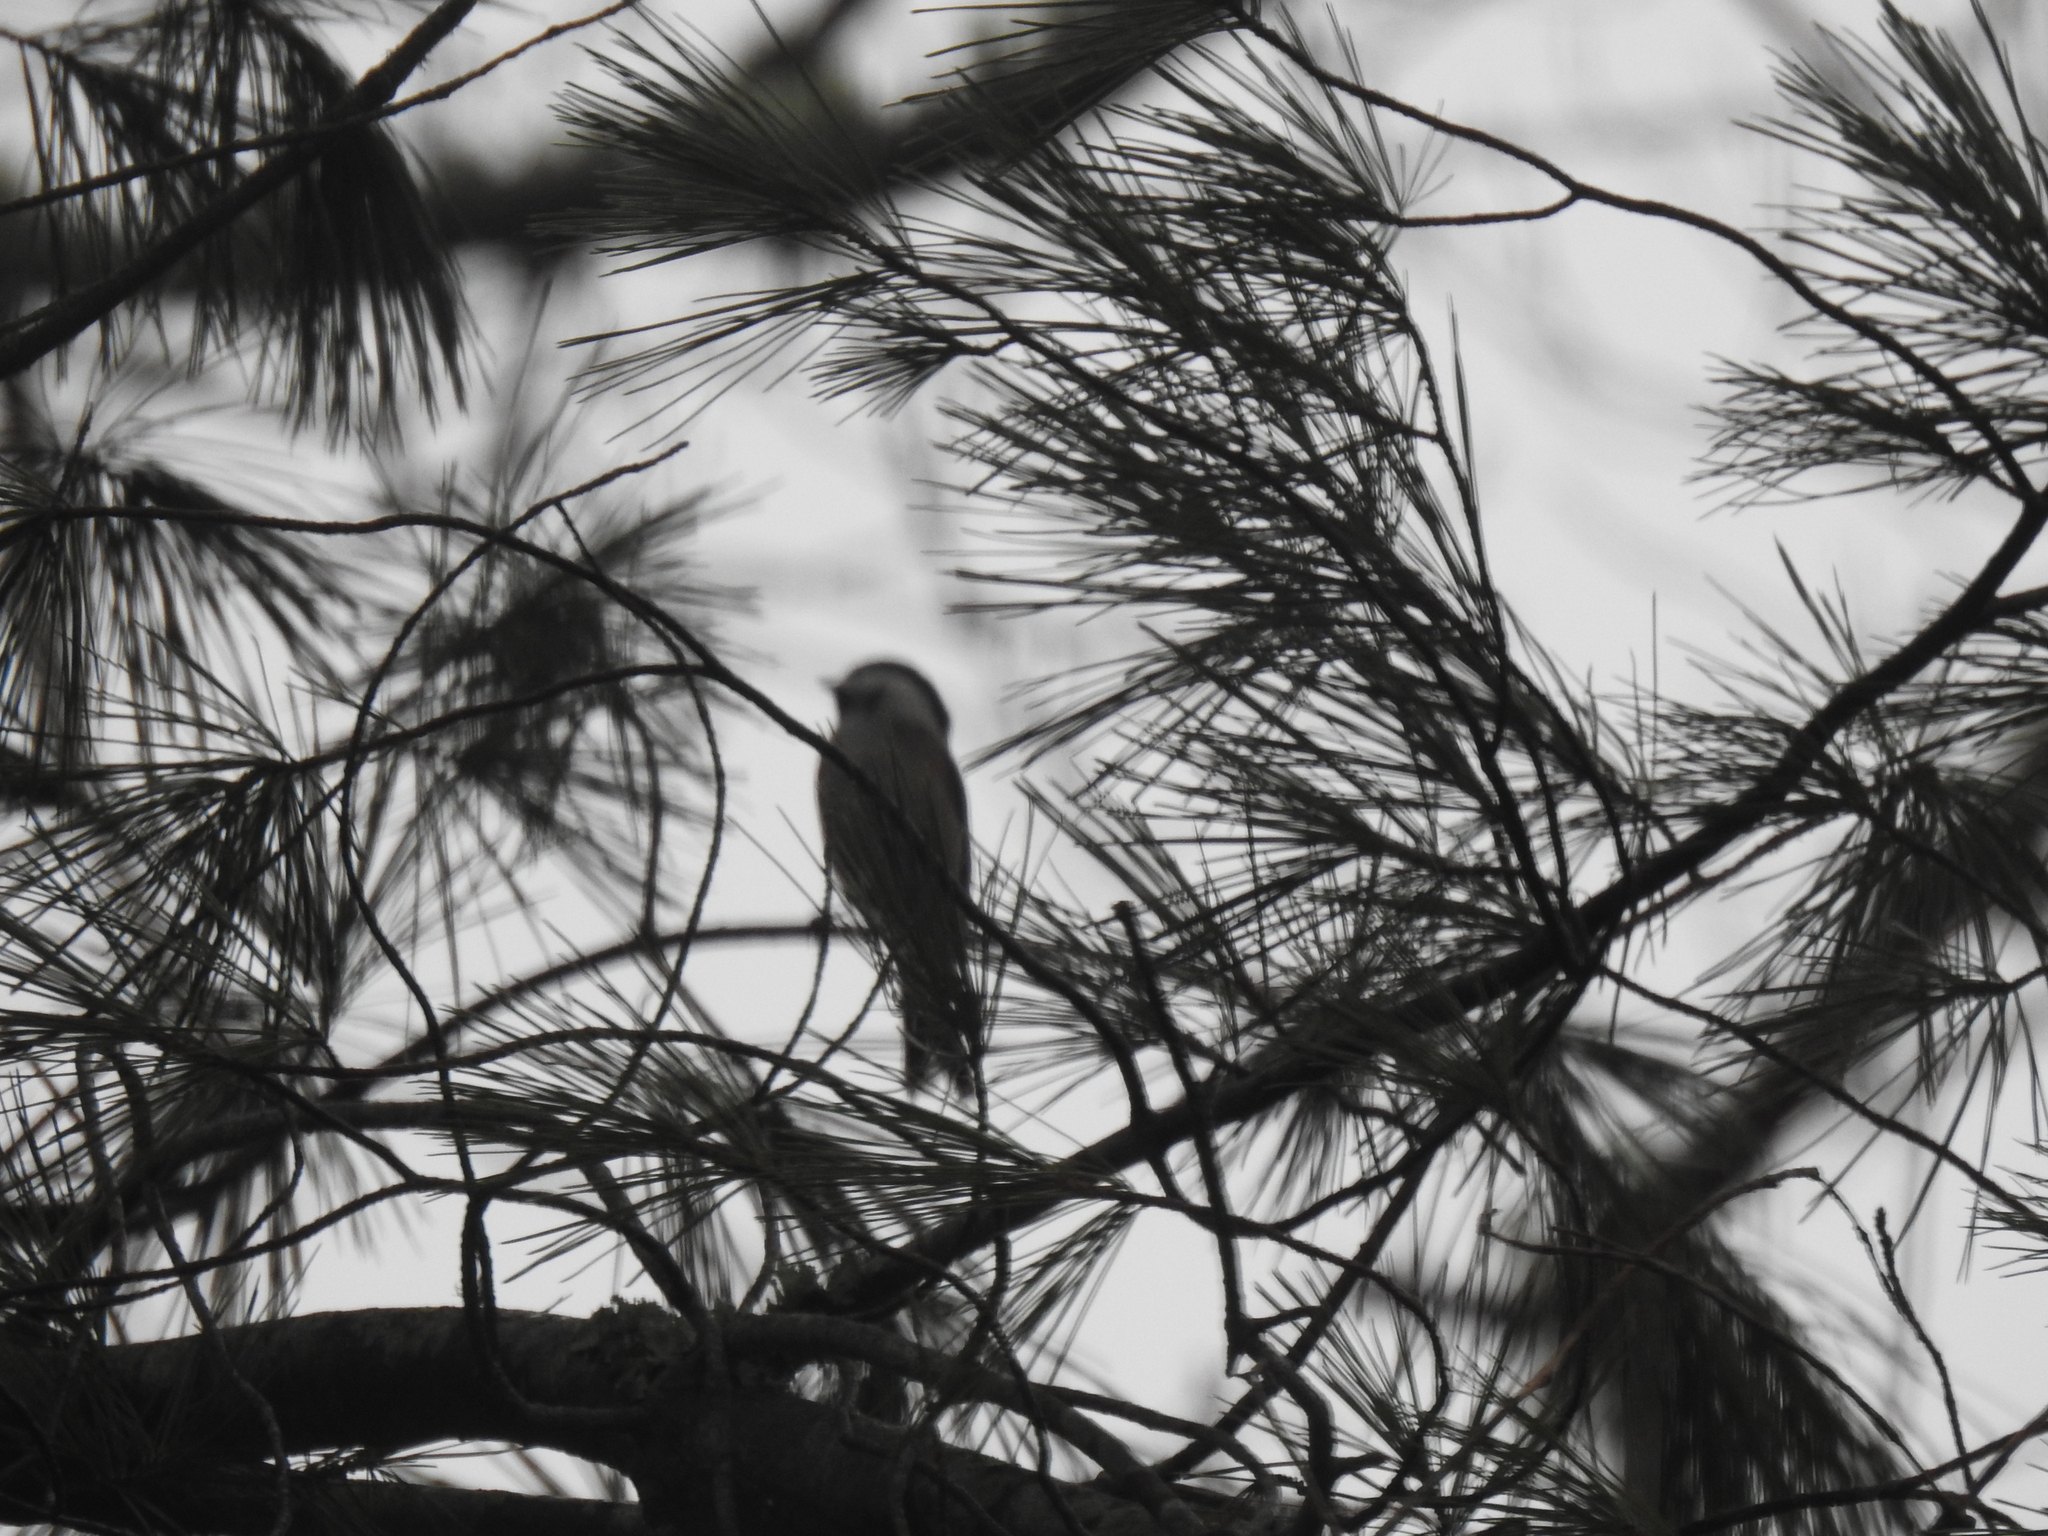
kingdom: Animalia
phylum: Chordata
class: Aves
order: Passeriformes
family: Paridae
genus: Poecile
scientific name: Poecile atricapillus
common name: Black-capped chickadee
